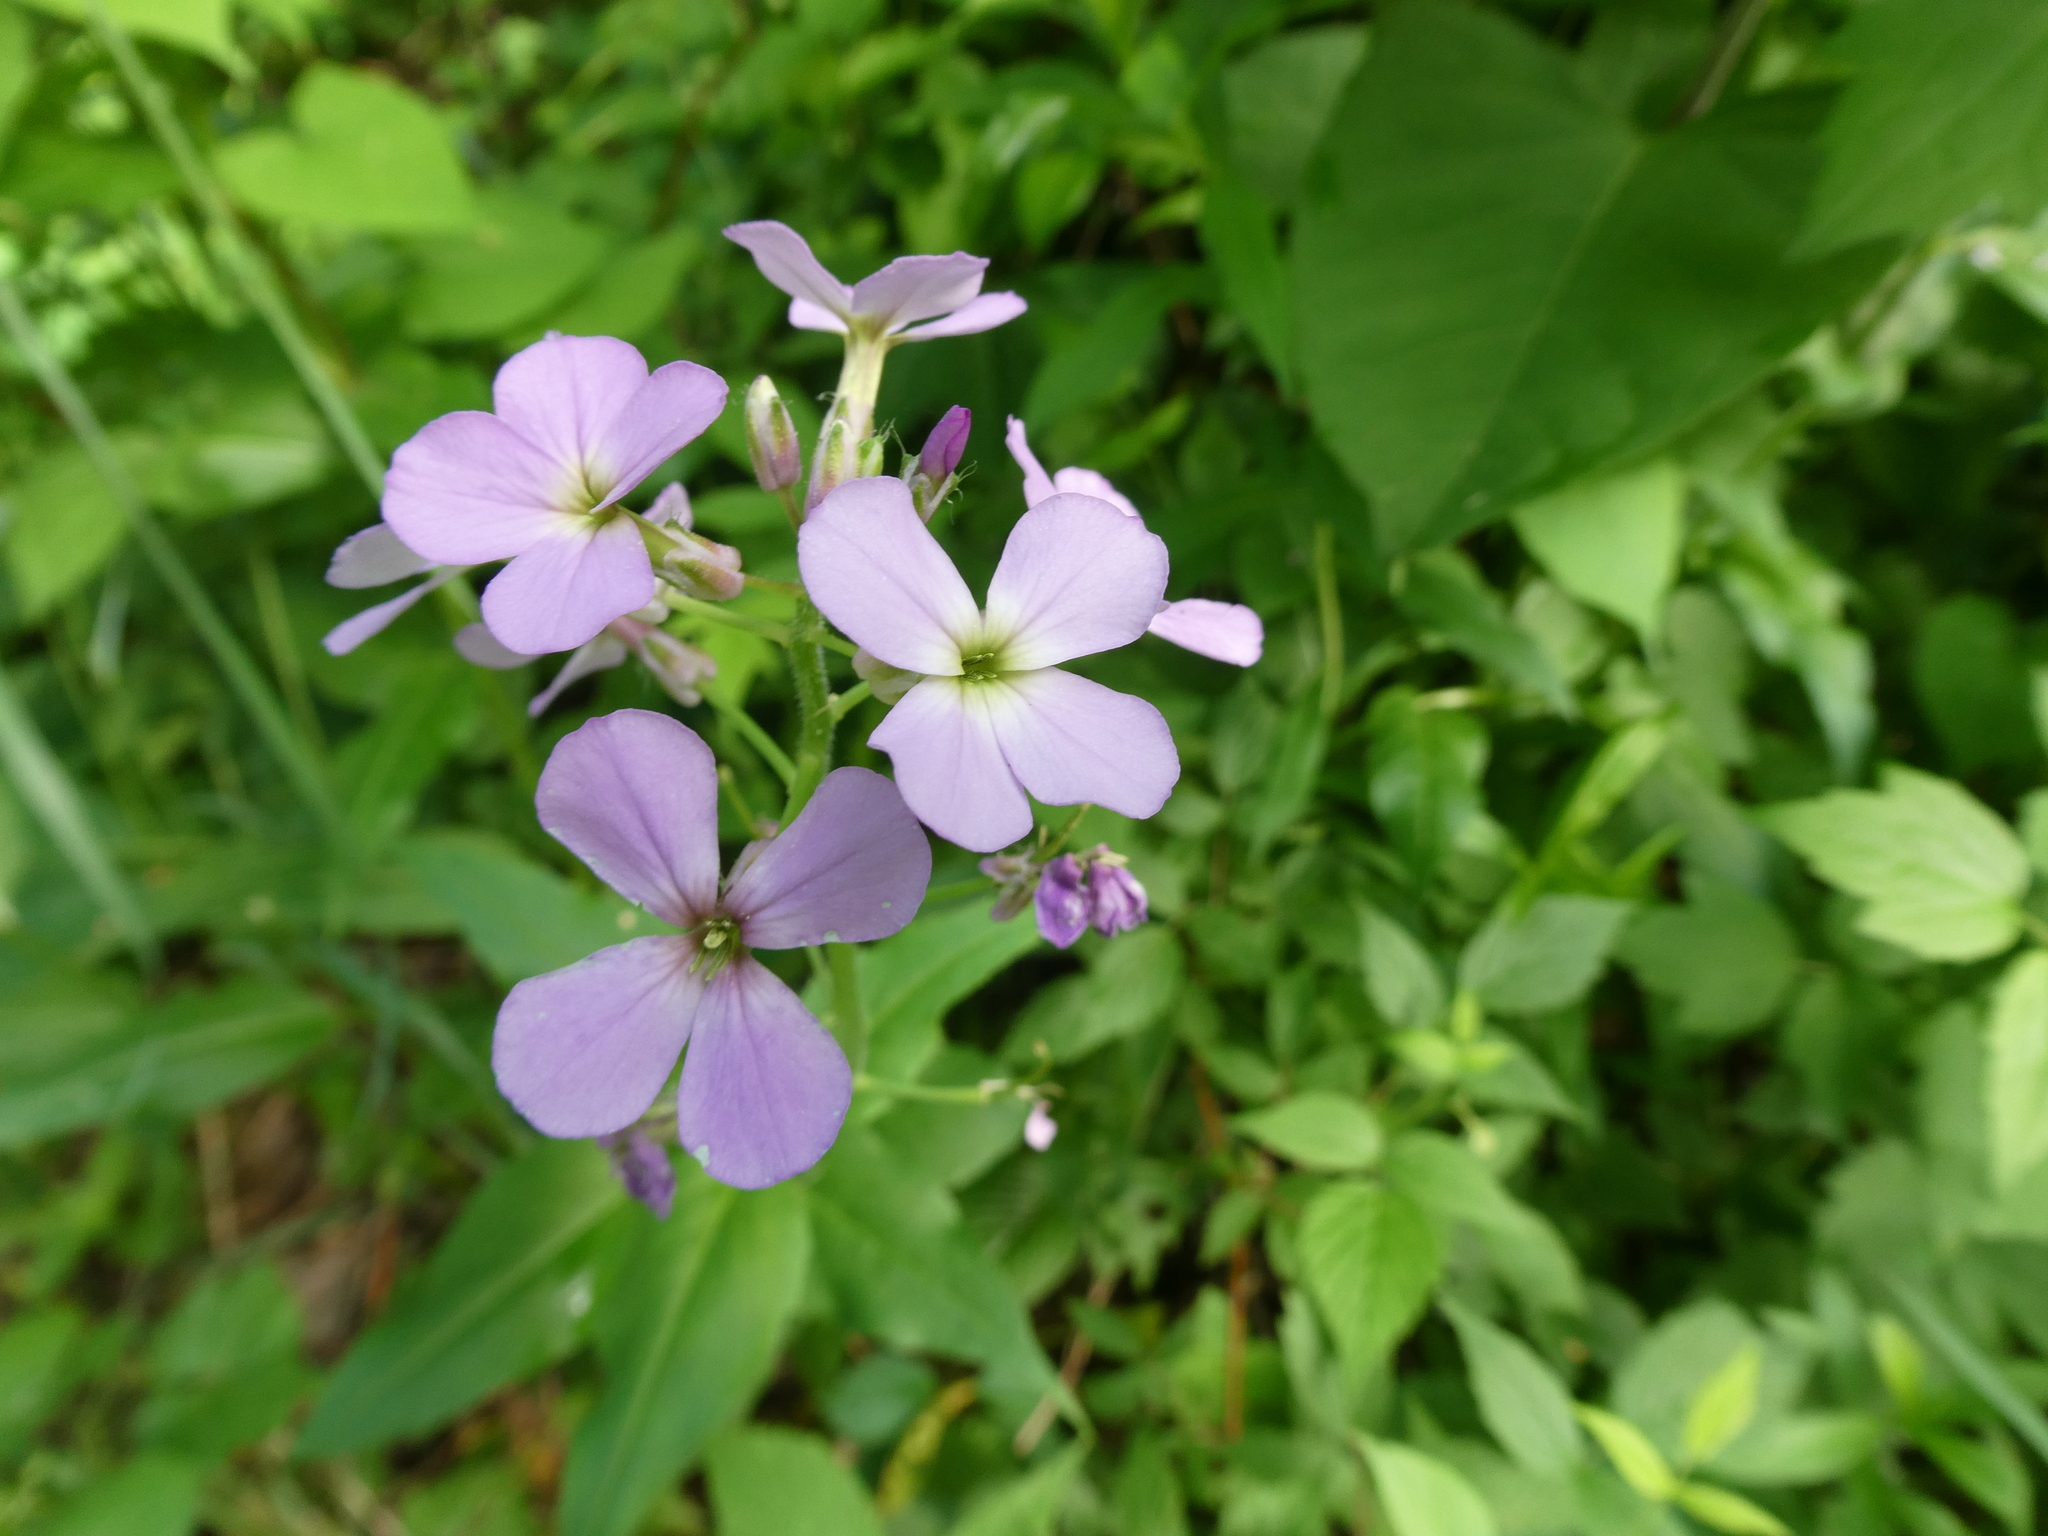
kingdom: Plantae
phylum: Tracheophyta
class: Magnoliopsida
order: Brassicales
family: Brassicaceae
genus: Hesperis
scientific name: Hesperis matronalis
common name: Dame's-violet
